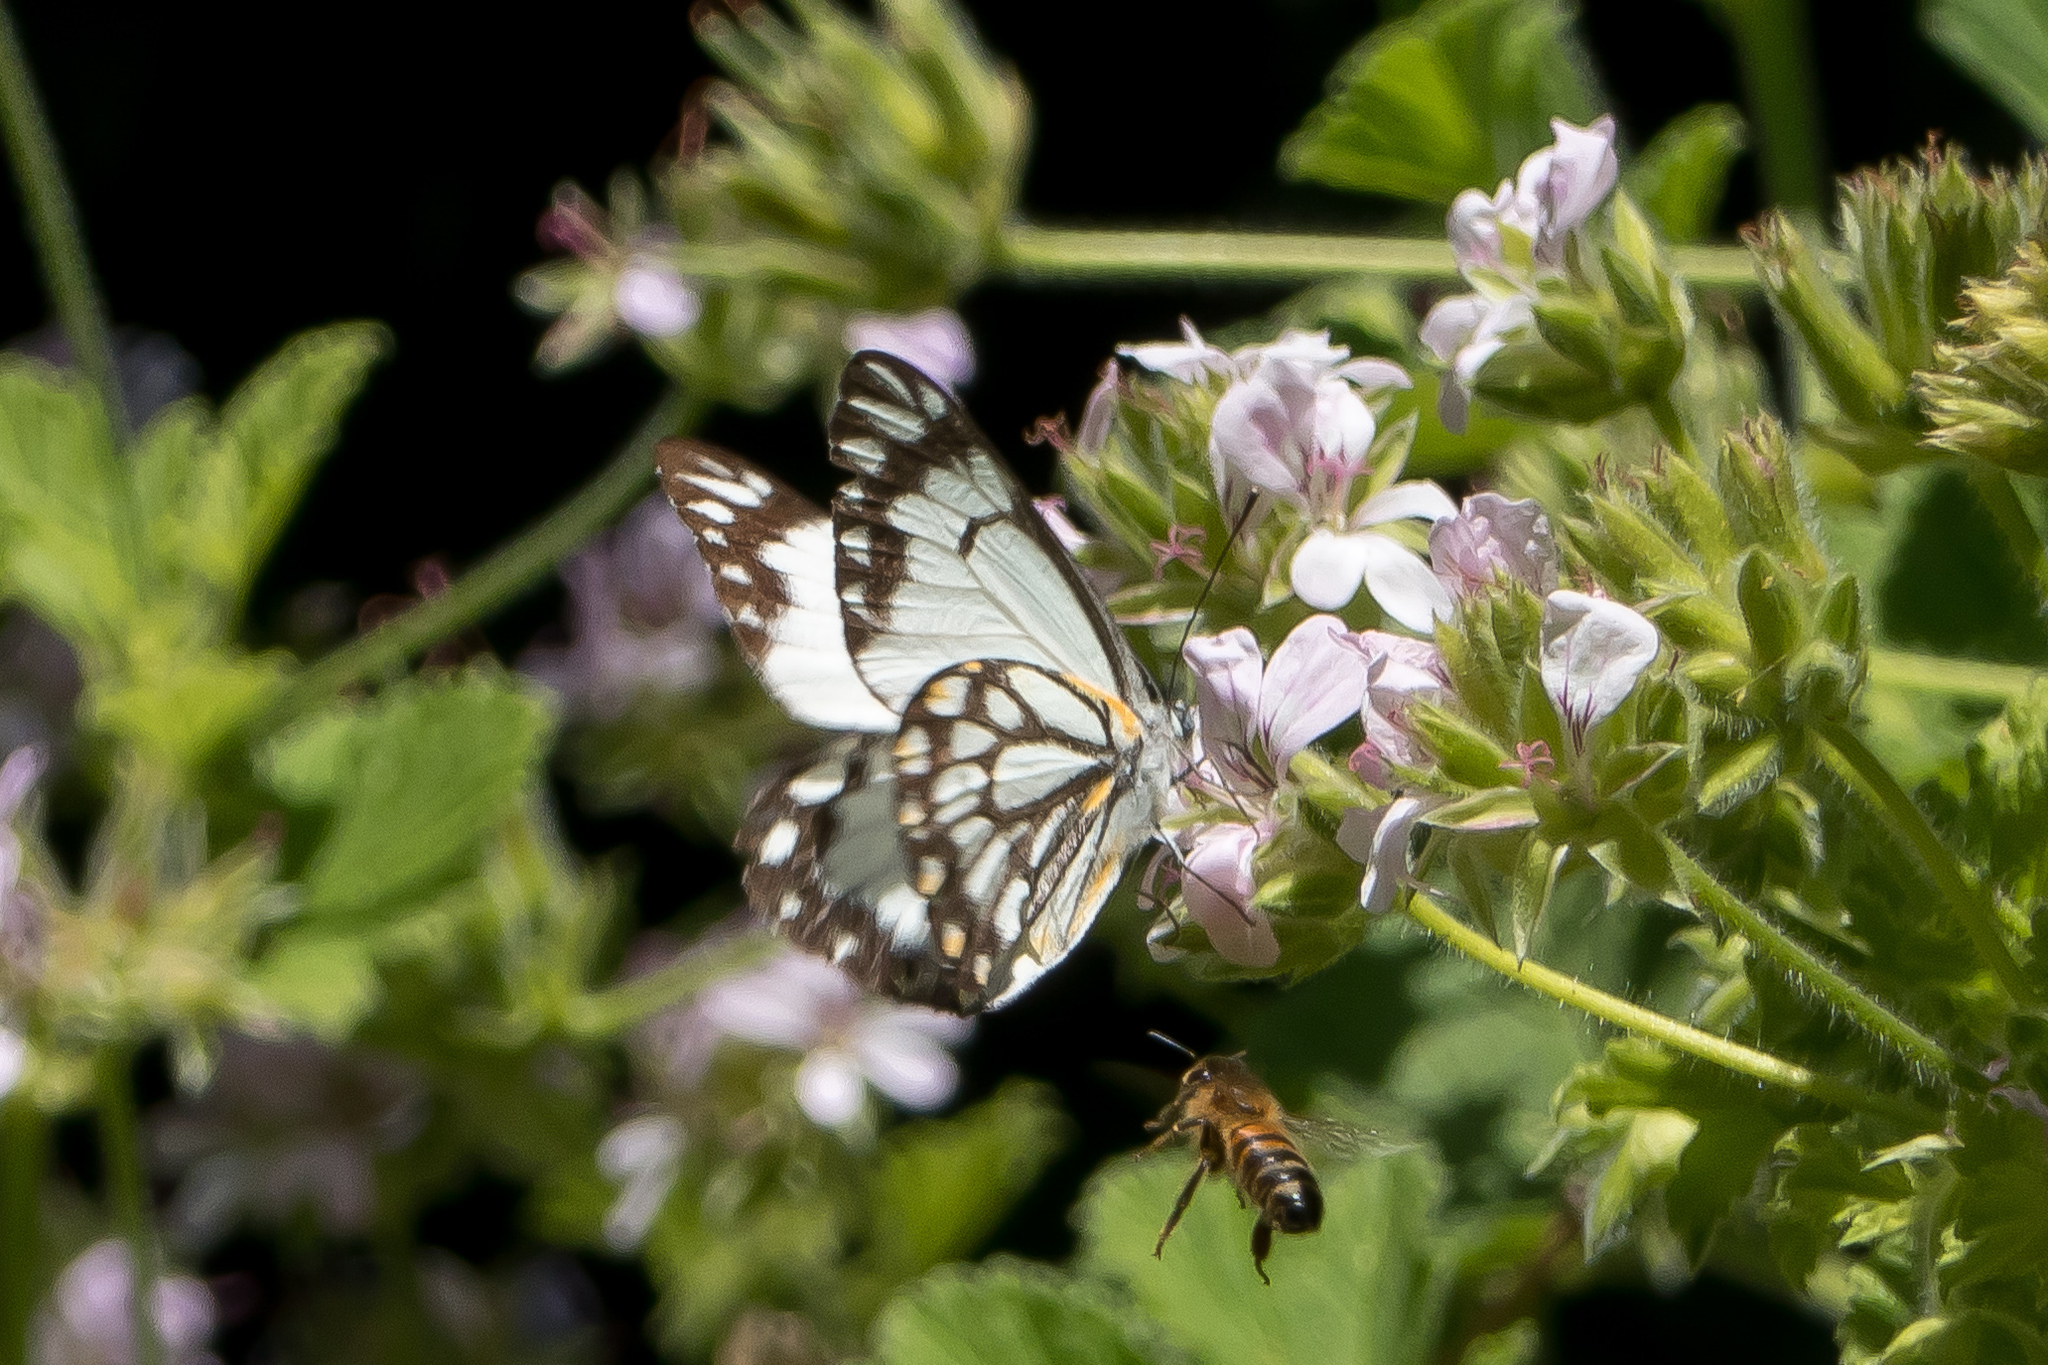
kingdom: Animalia
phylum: Arthropoda
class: Insecta
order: Lepidoptera
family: Pieridae
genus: Belenois
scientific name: Belenois java
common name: Caper white
